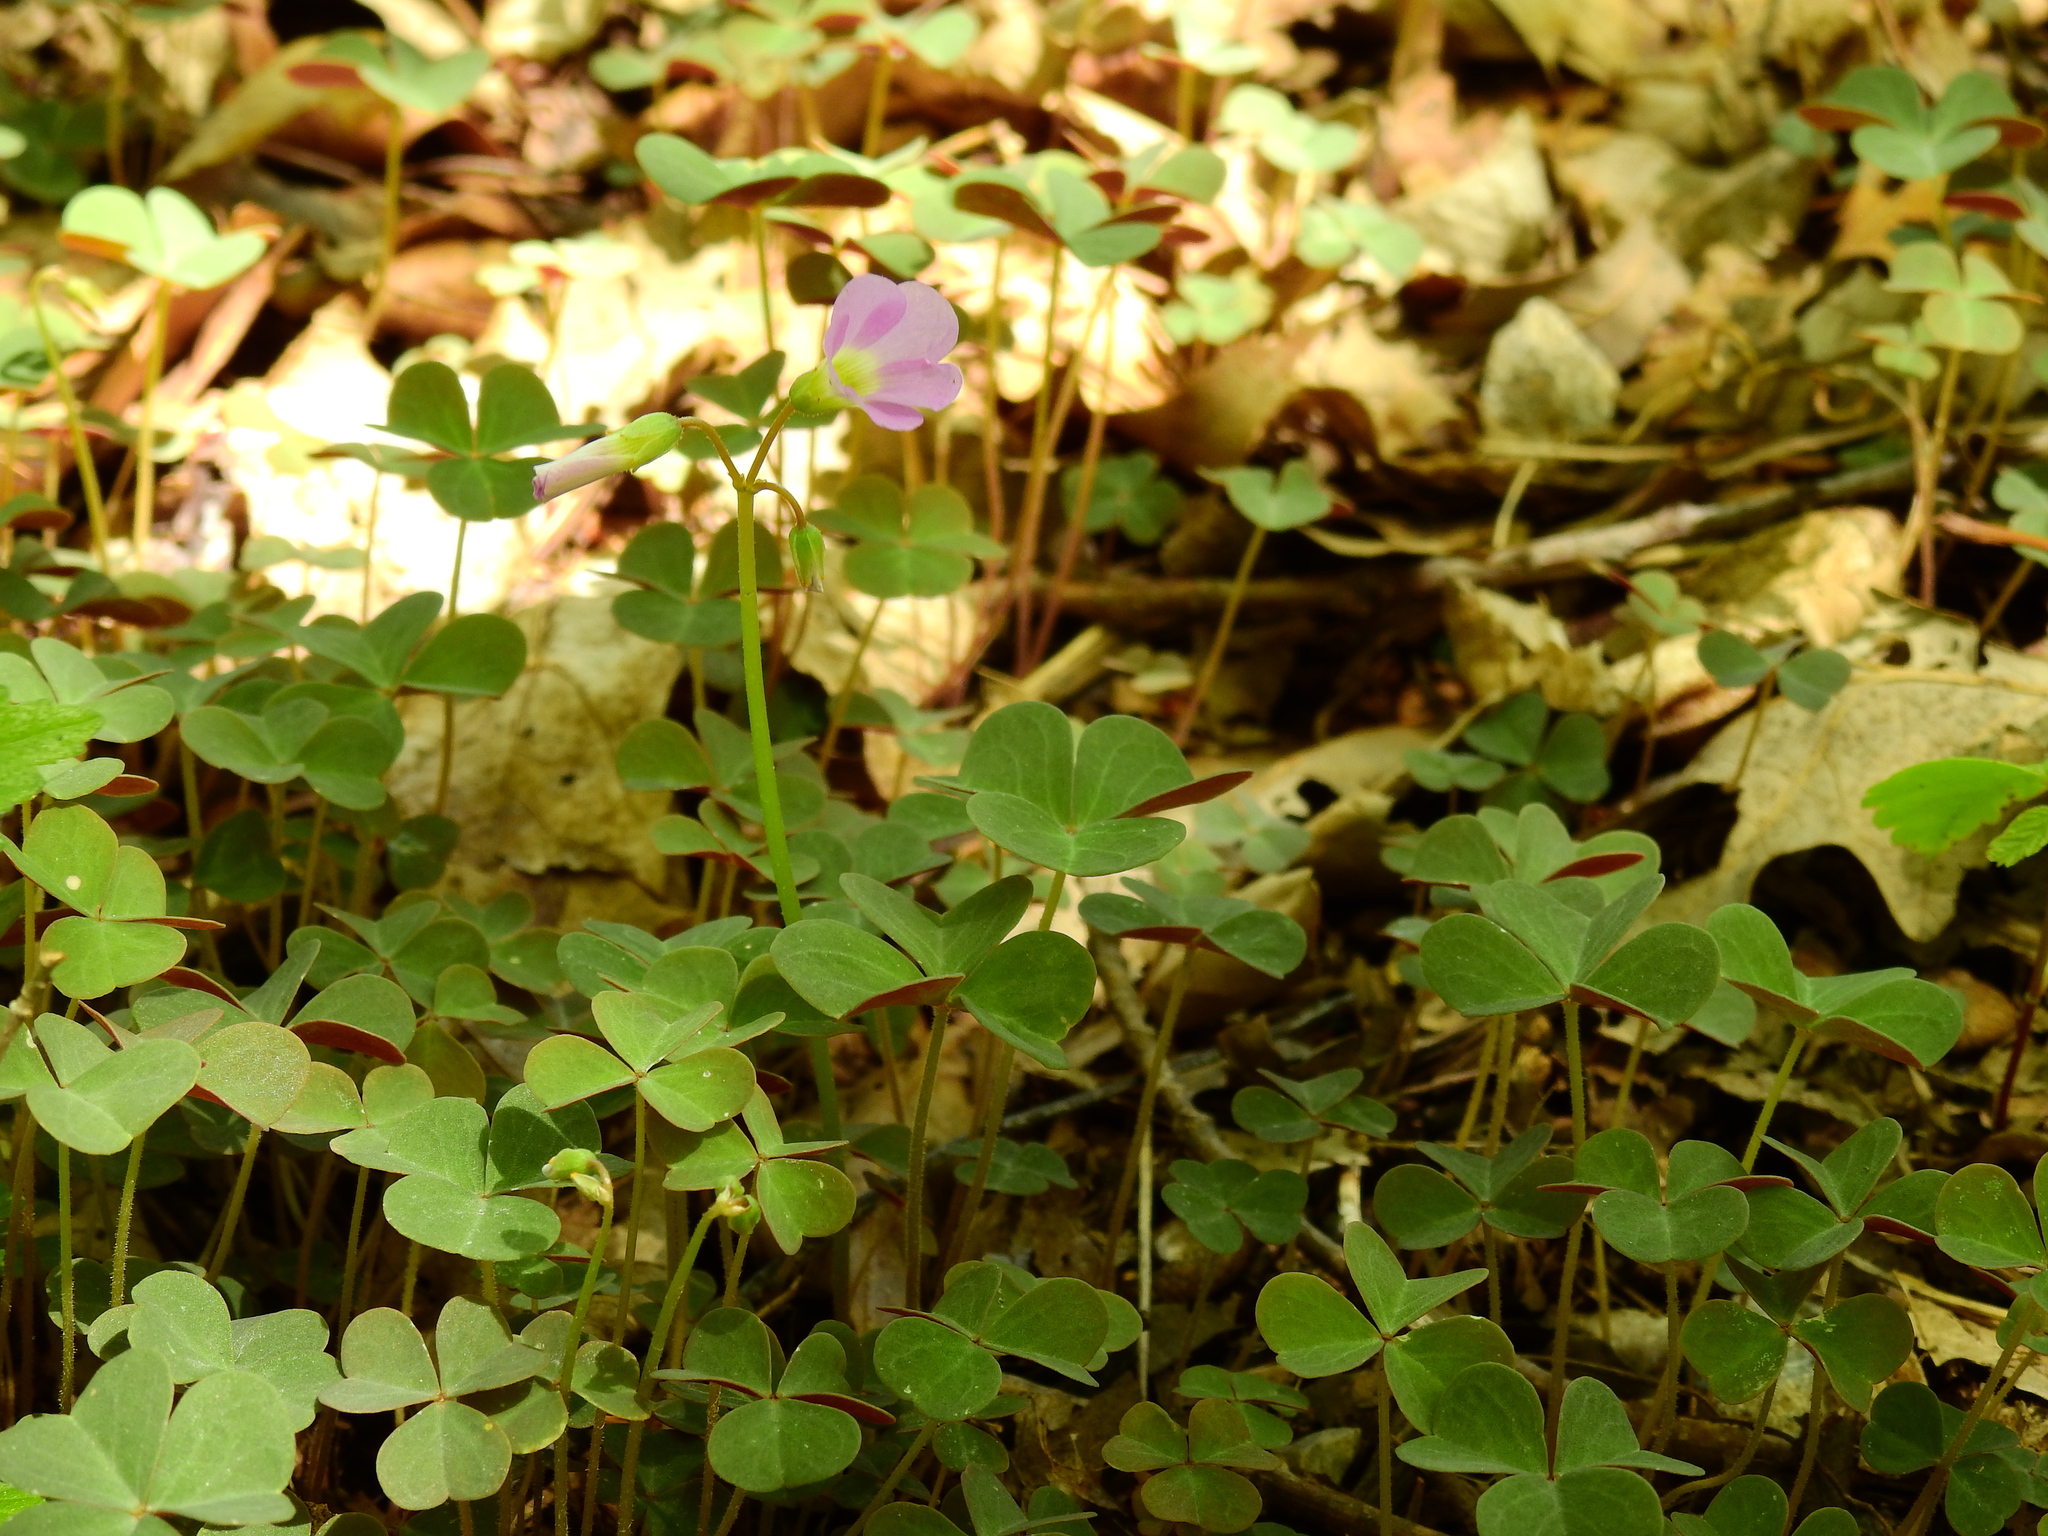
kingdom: Plantae
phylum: Tracheophyta
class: Magnoliopsida
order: Oxalidales
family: Oxalidaceae
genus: Oxalis
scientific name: Oxalis violacea
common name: Violet wood-sorrel
